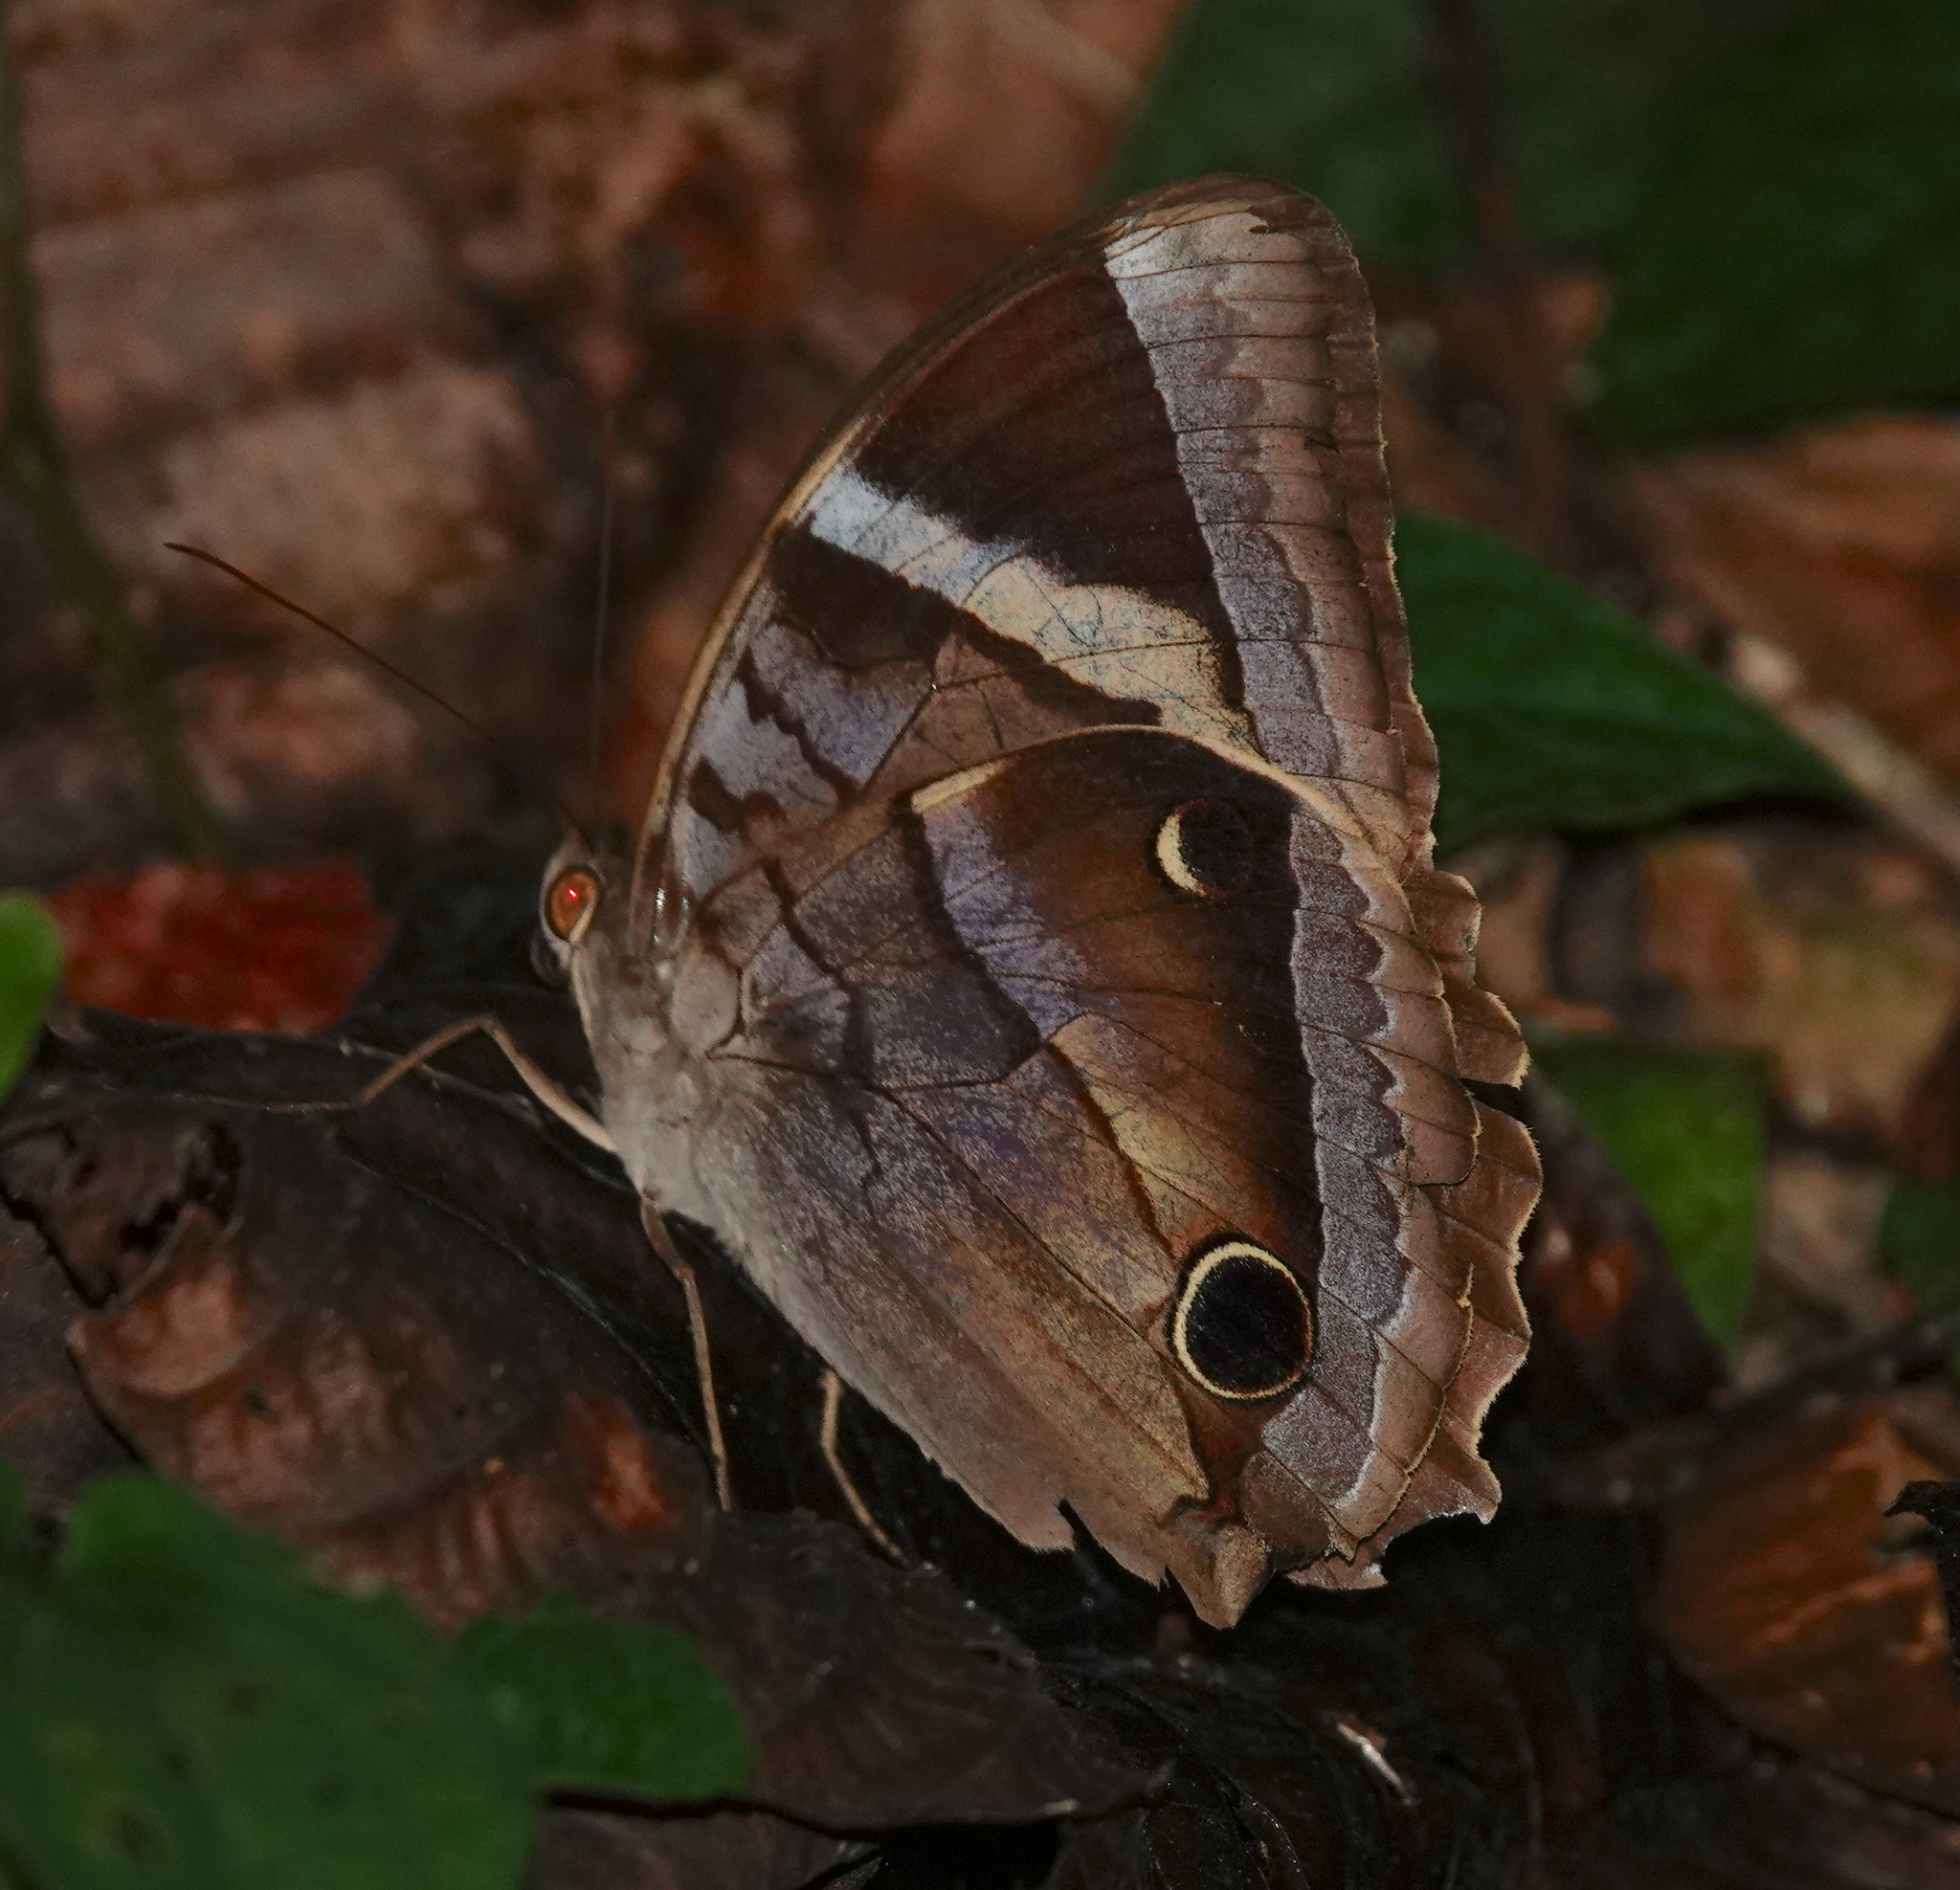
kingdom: Animalia
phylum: Arthropoda
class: Insecta
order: Lepidoptera
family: Nymphalidae
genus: Thaumantis
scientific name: Thaumantis odana
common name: Malayan jungle glory
